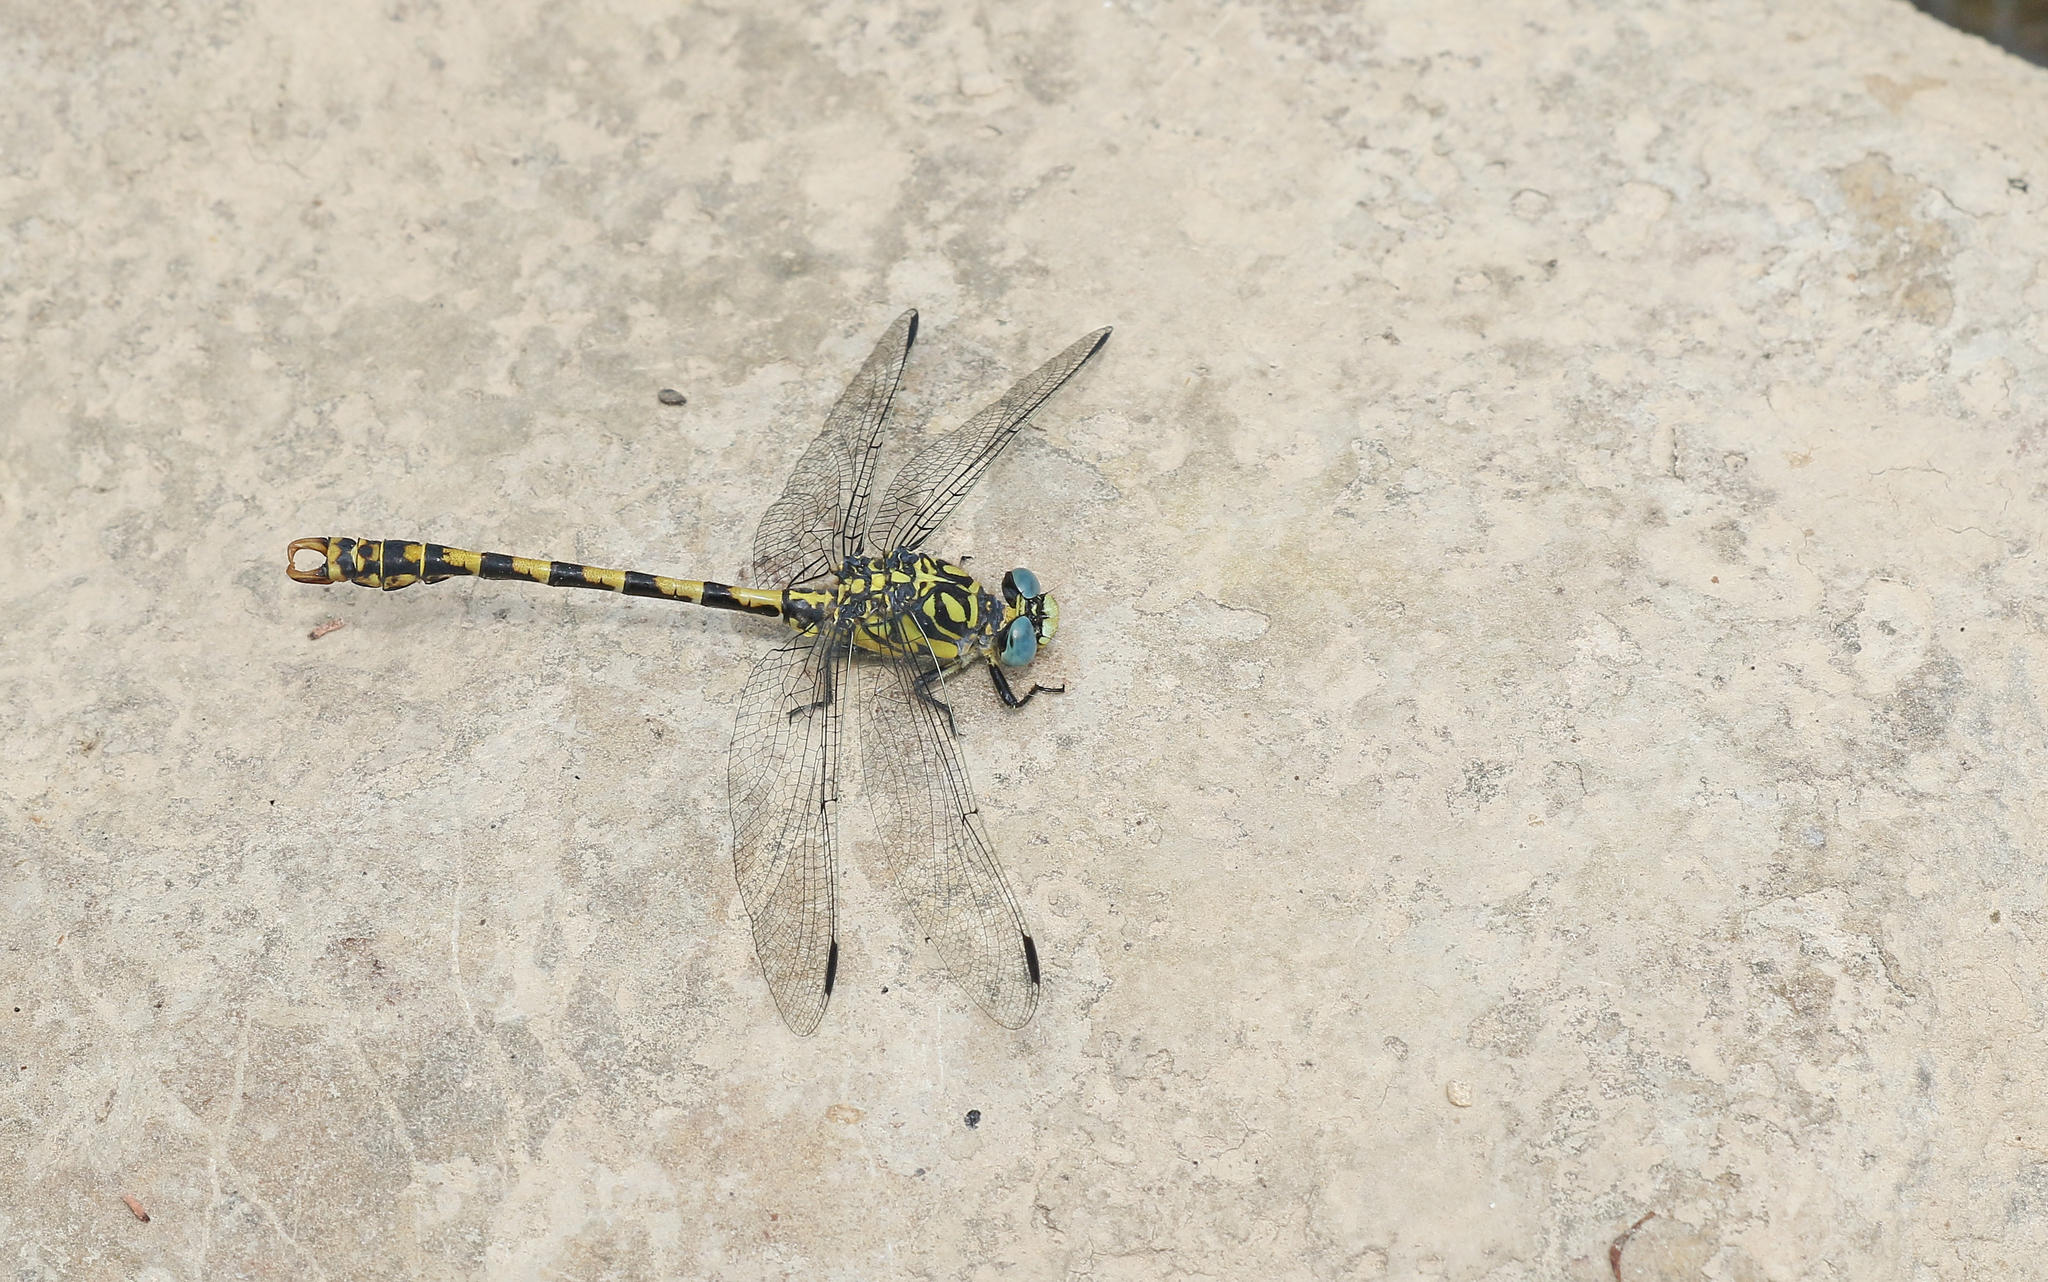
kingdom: Animalia
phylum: Arthropoda
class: Insecta
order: Odonata
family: Gomphidae
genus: Onychogomphus
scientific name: Onychogomphus forcipatus
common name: Small pincertail
